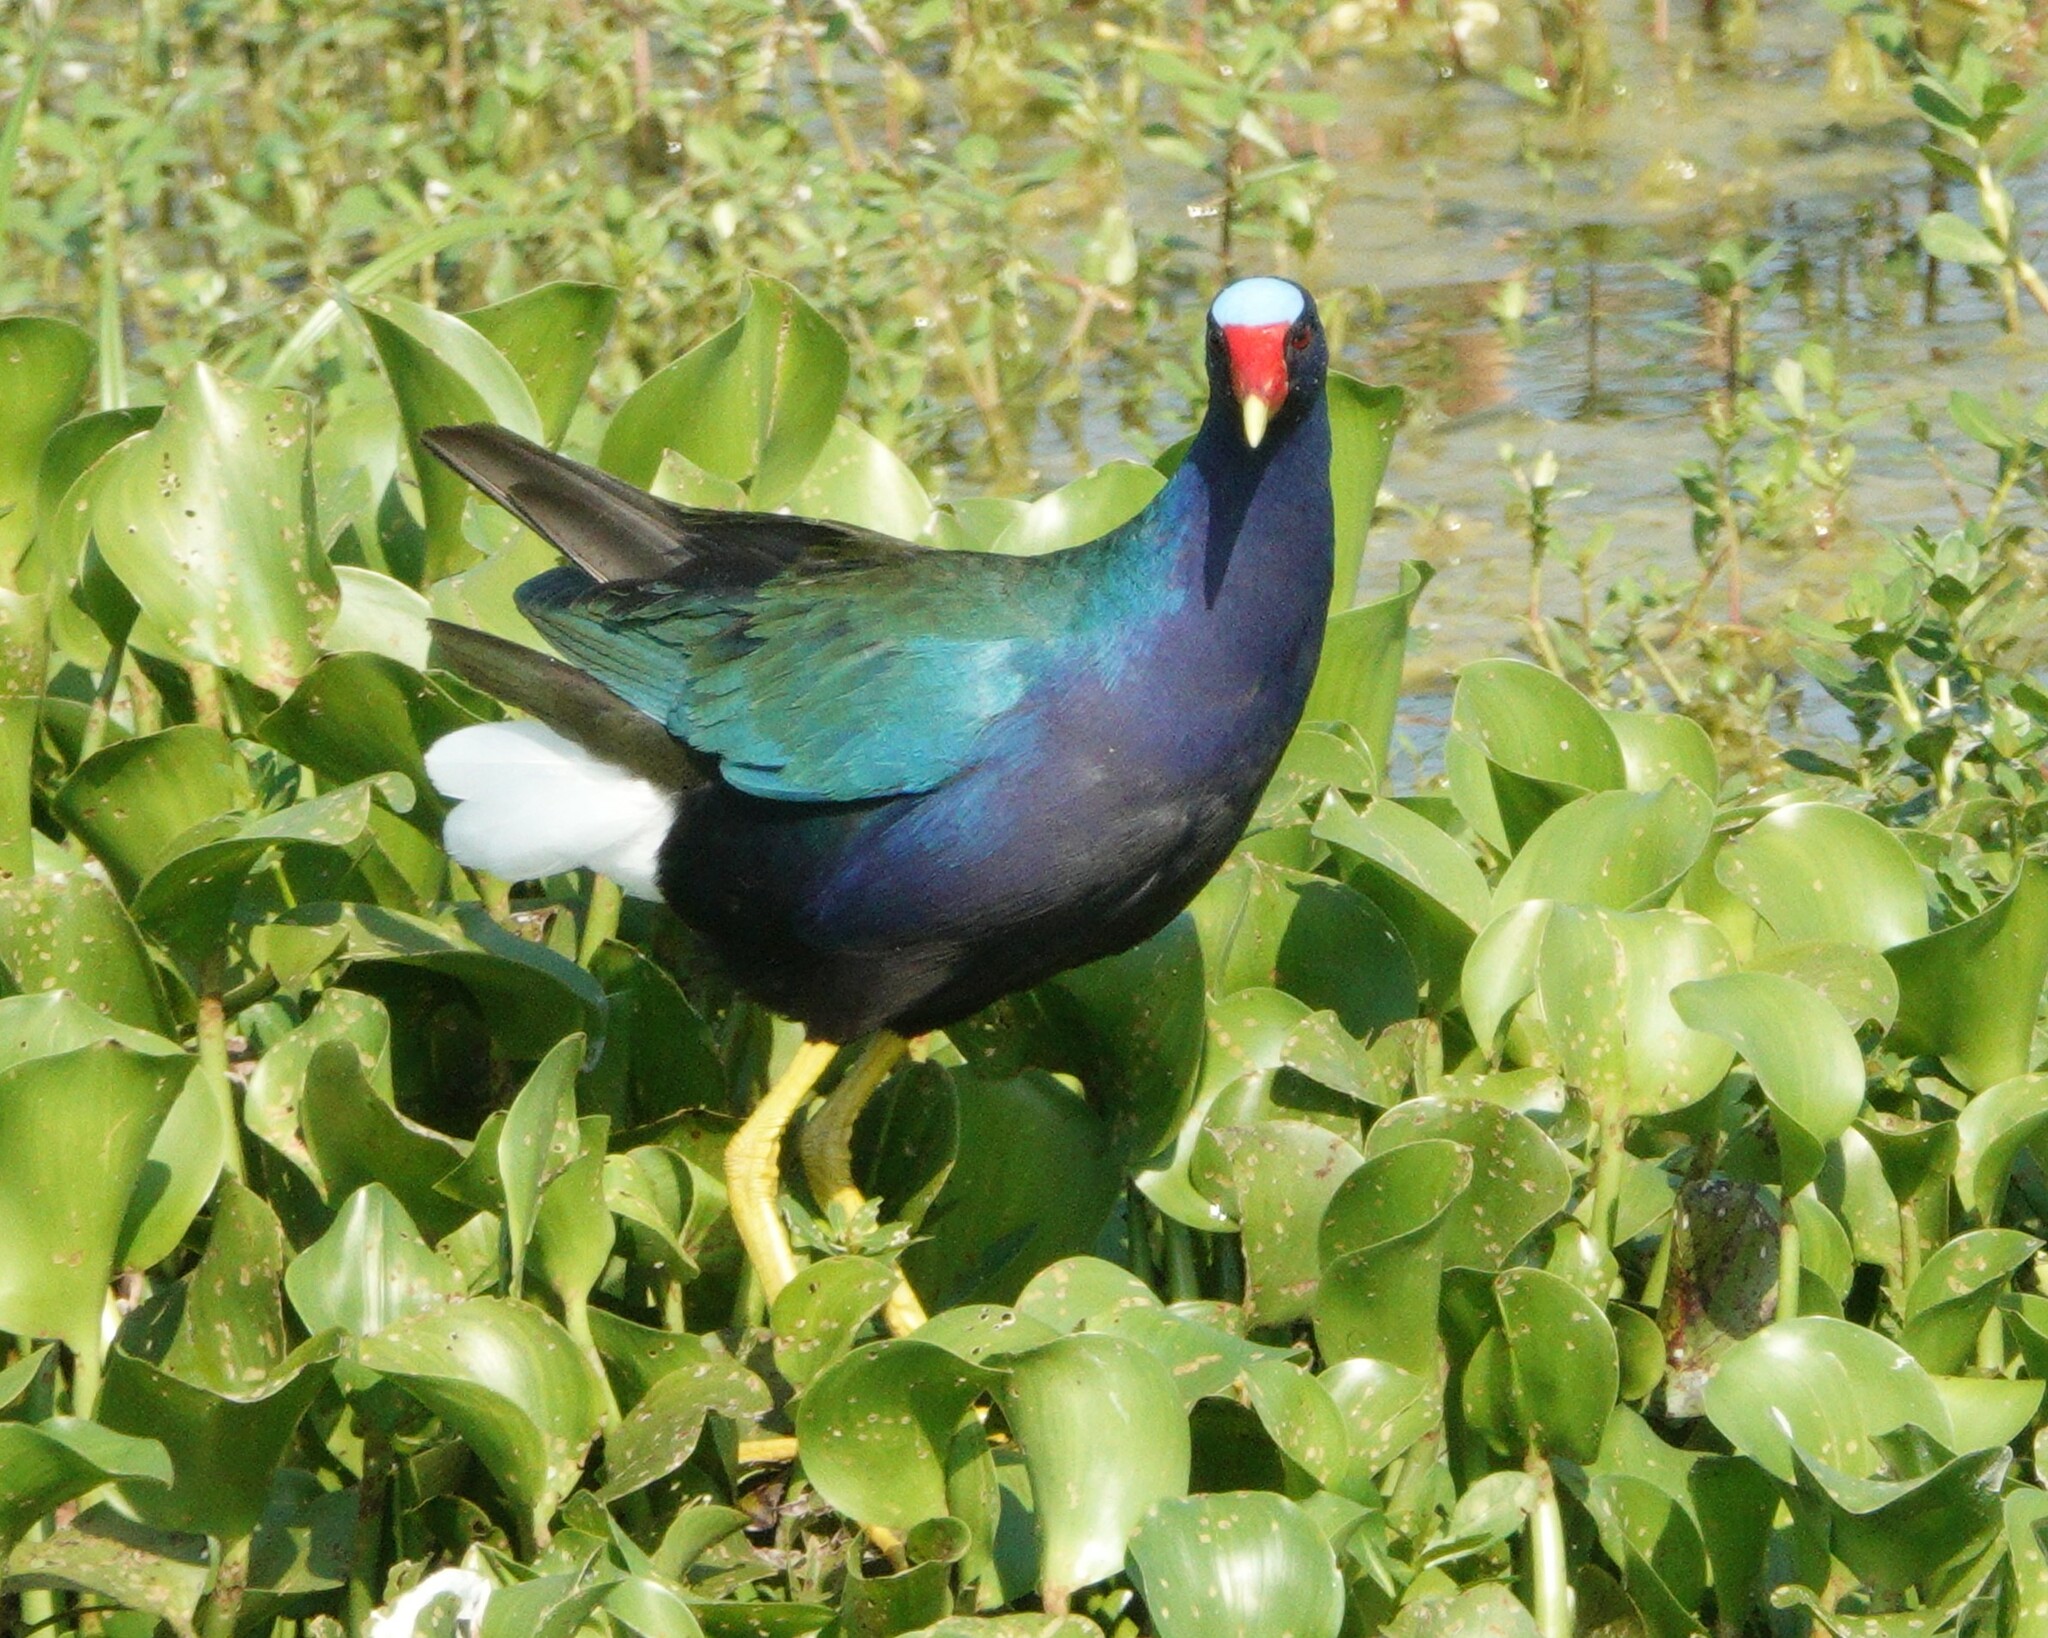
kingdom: Animalia
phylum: Chordata
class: Aves
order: Gruiformes
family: Rallidae
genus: Porphyrio
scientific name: Porphyrio martinica
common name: Purple gallinule
